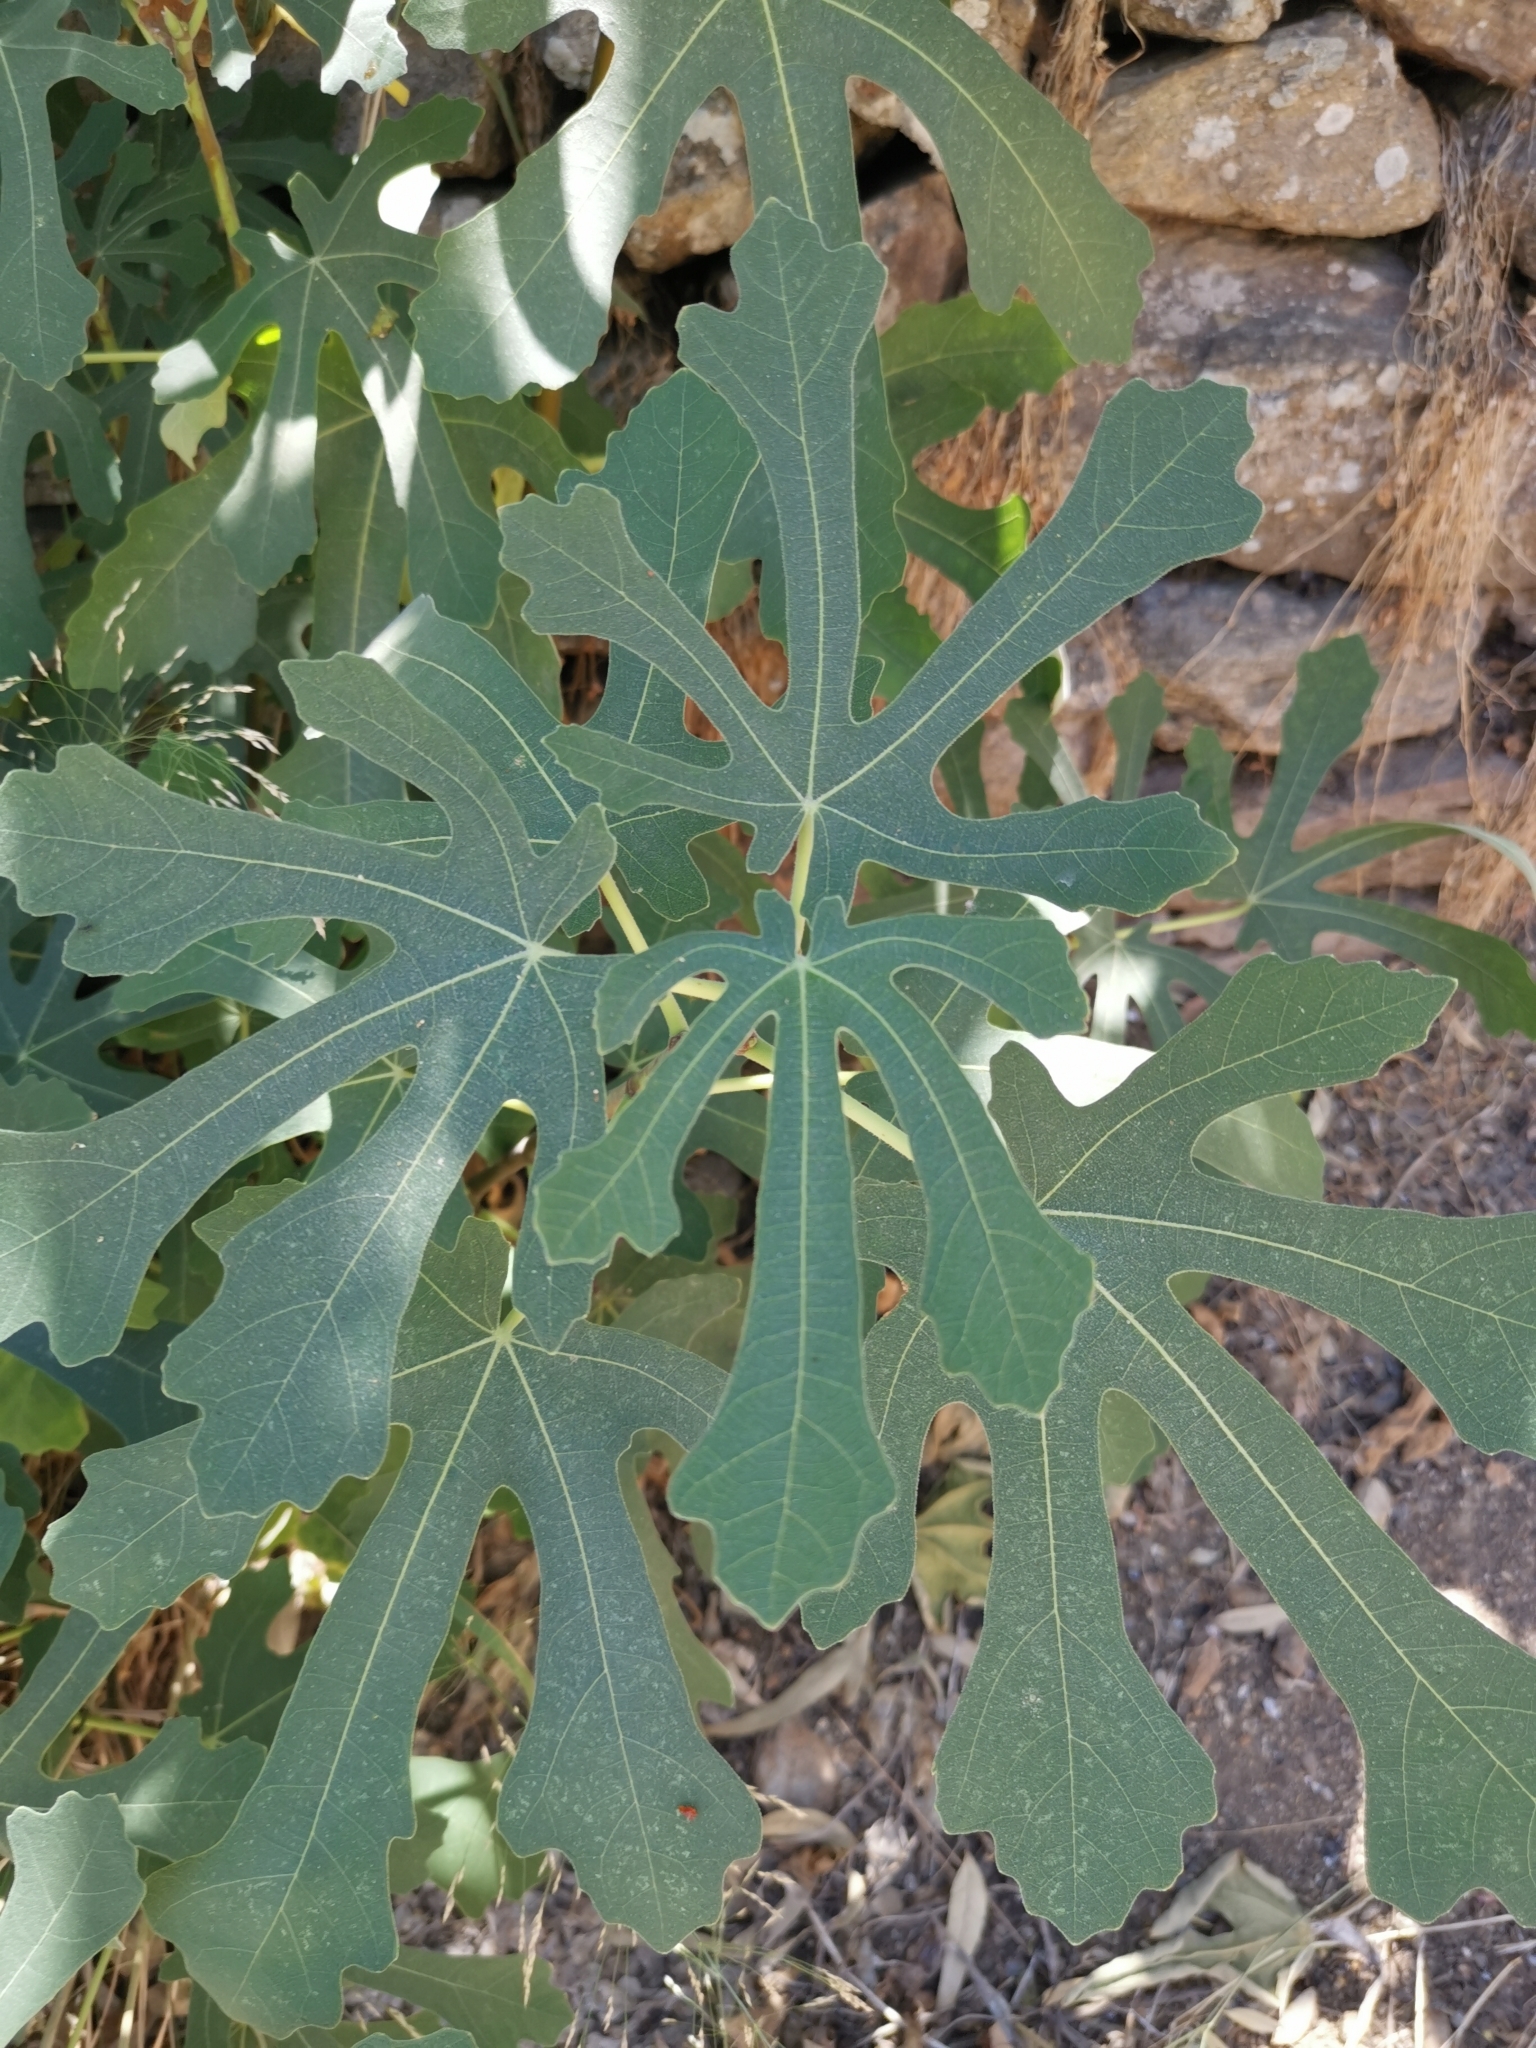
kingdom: Plantae
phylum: Tracheophyta
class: Magnoliopsida
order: Rosales
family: Moraceae
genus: Ficus
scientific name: Ficus carica
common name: Fig
